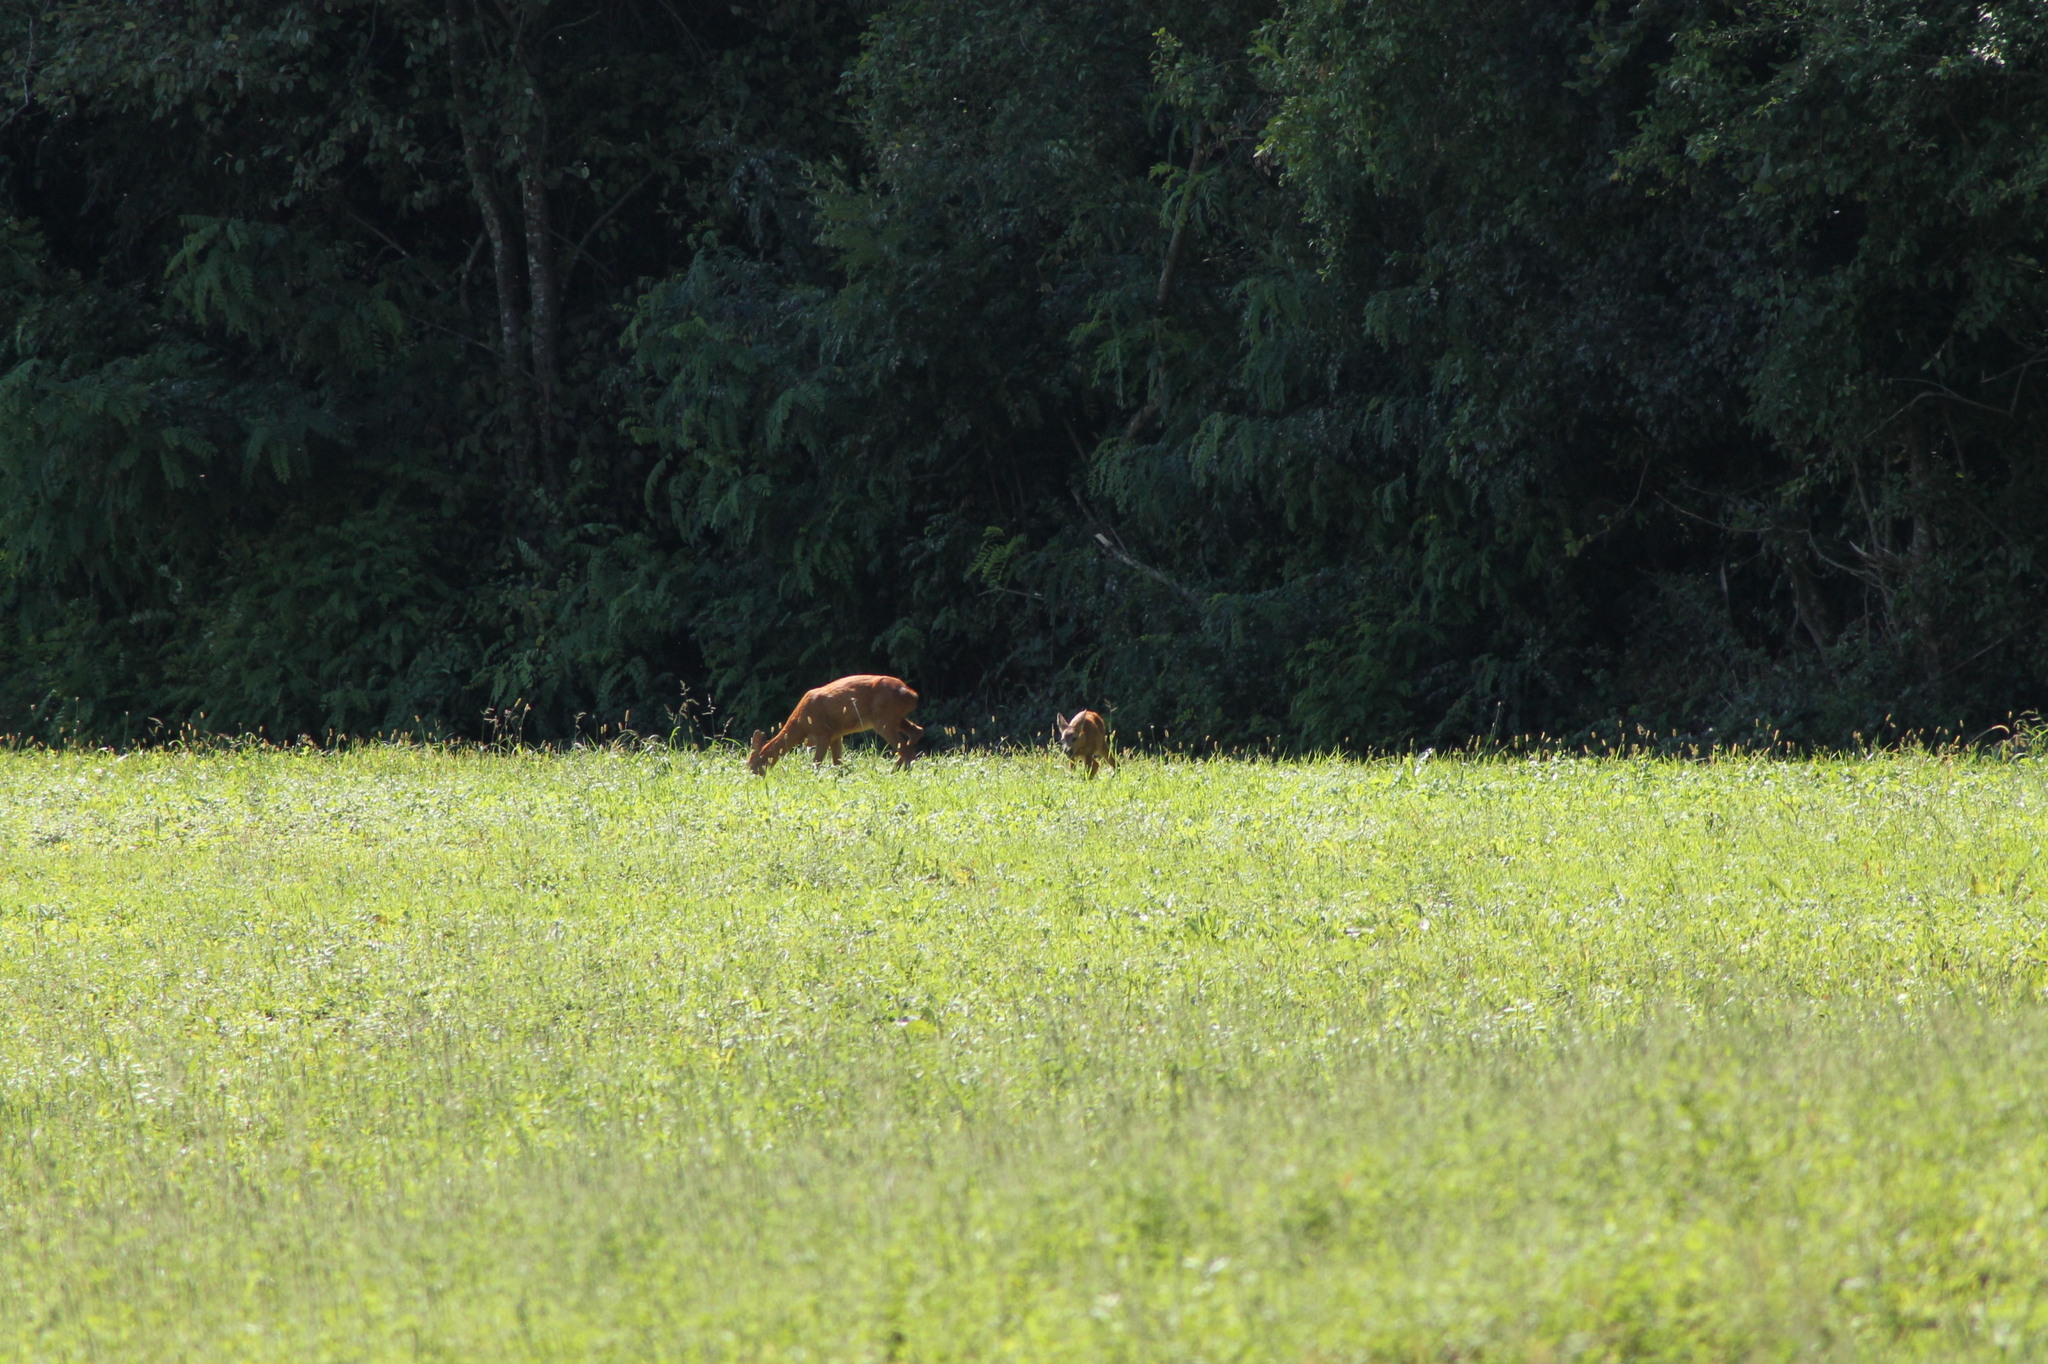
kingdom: Animalia
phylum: Chordata
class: Mammalia
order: Artiodactyla
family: Cervidae
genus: Capreolus
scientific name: Capreolus capreolus
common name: Western roe deer
